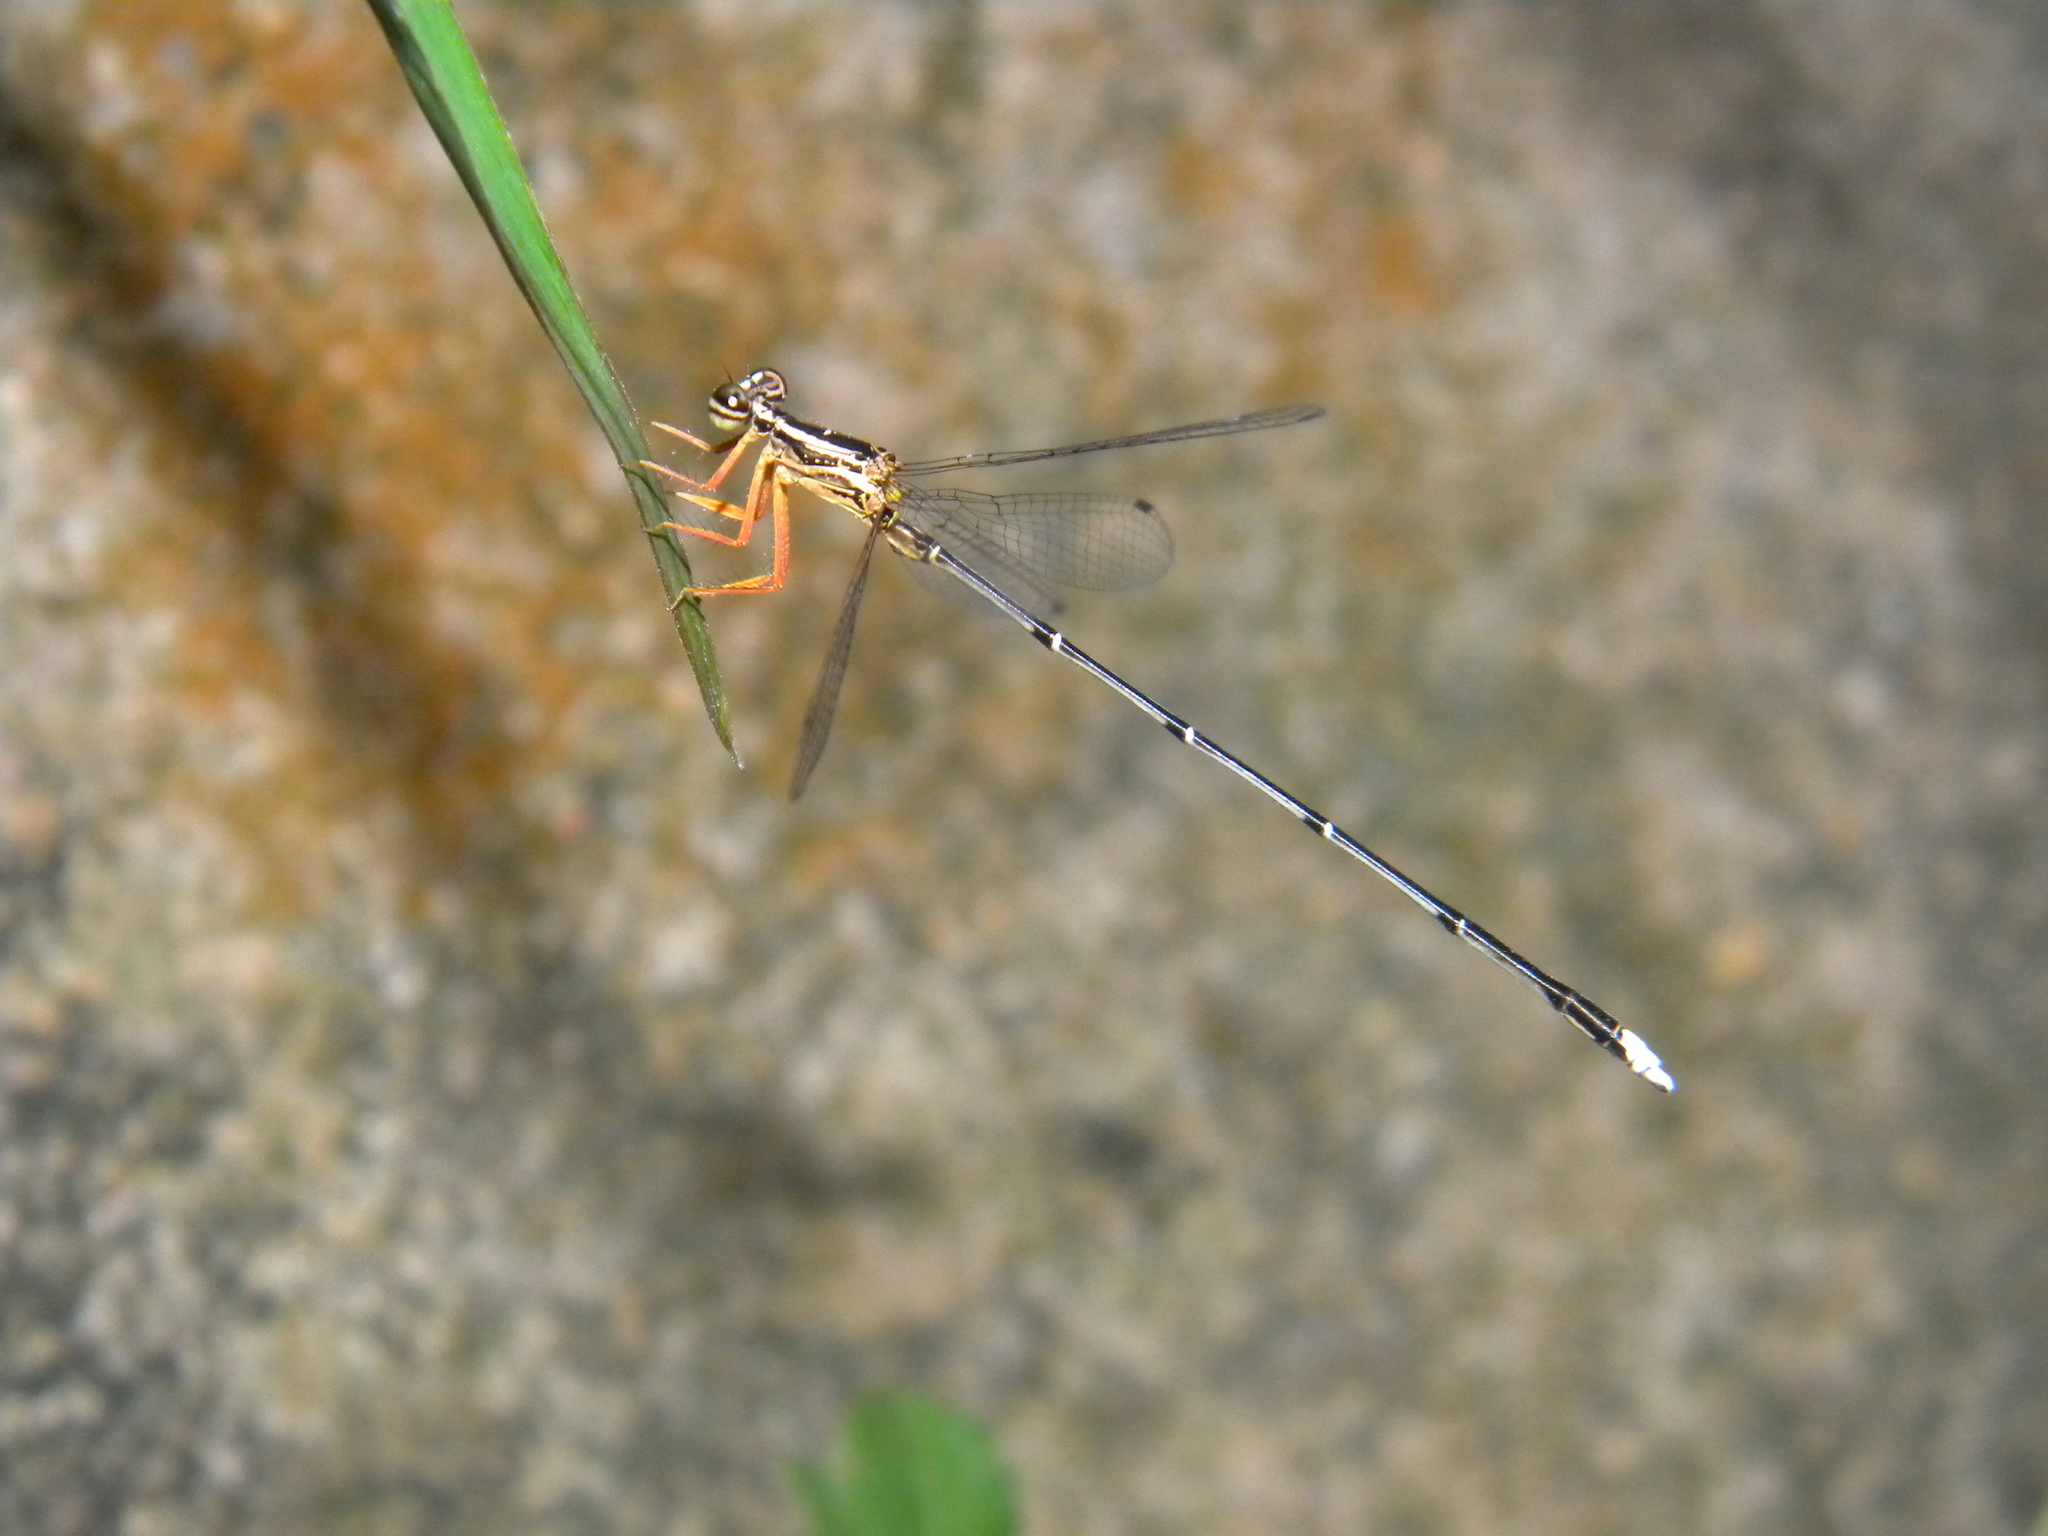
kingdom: Animalia
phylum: Arthropoda
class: Insecta
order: Odonata
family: Platycnemididae
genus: Copera
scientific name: Copera marginipes
